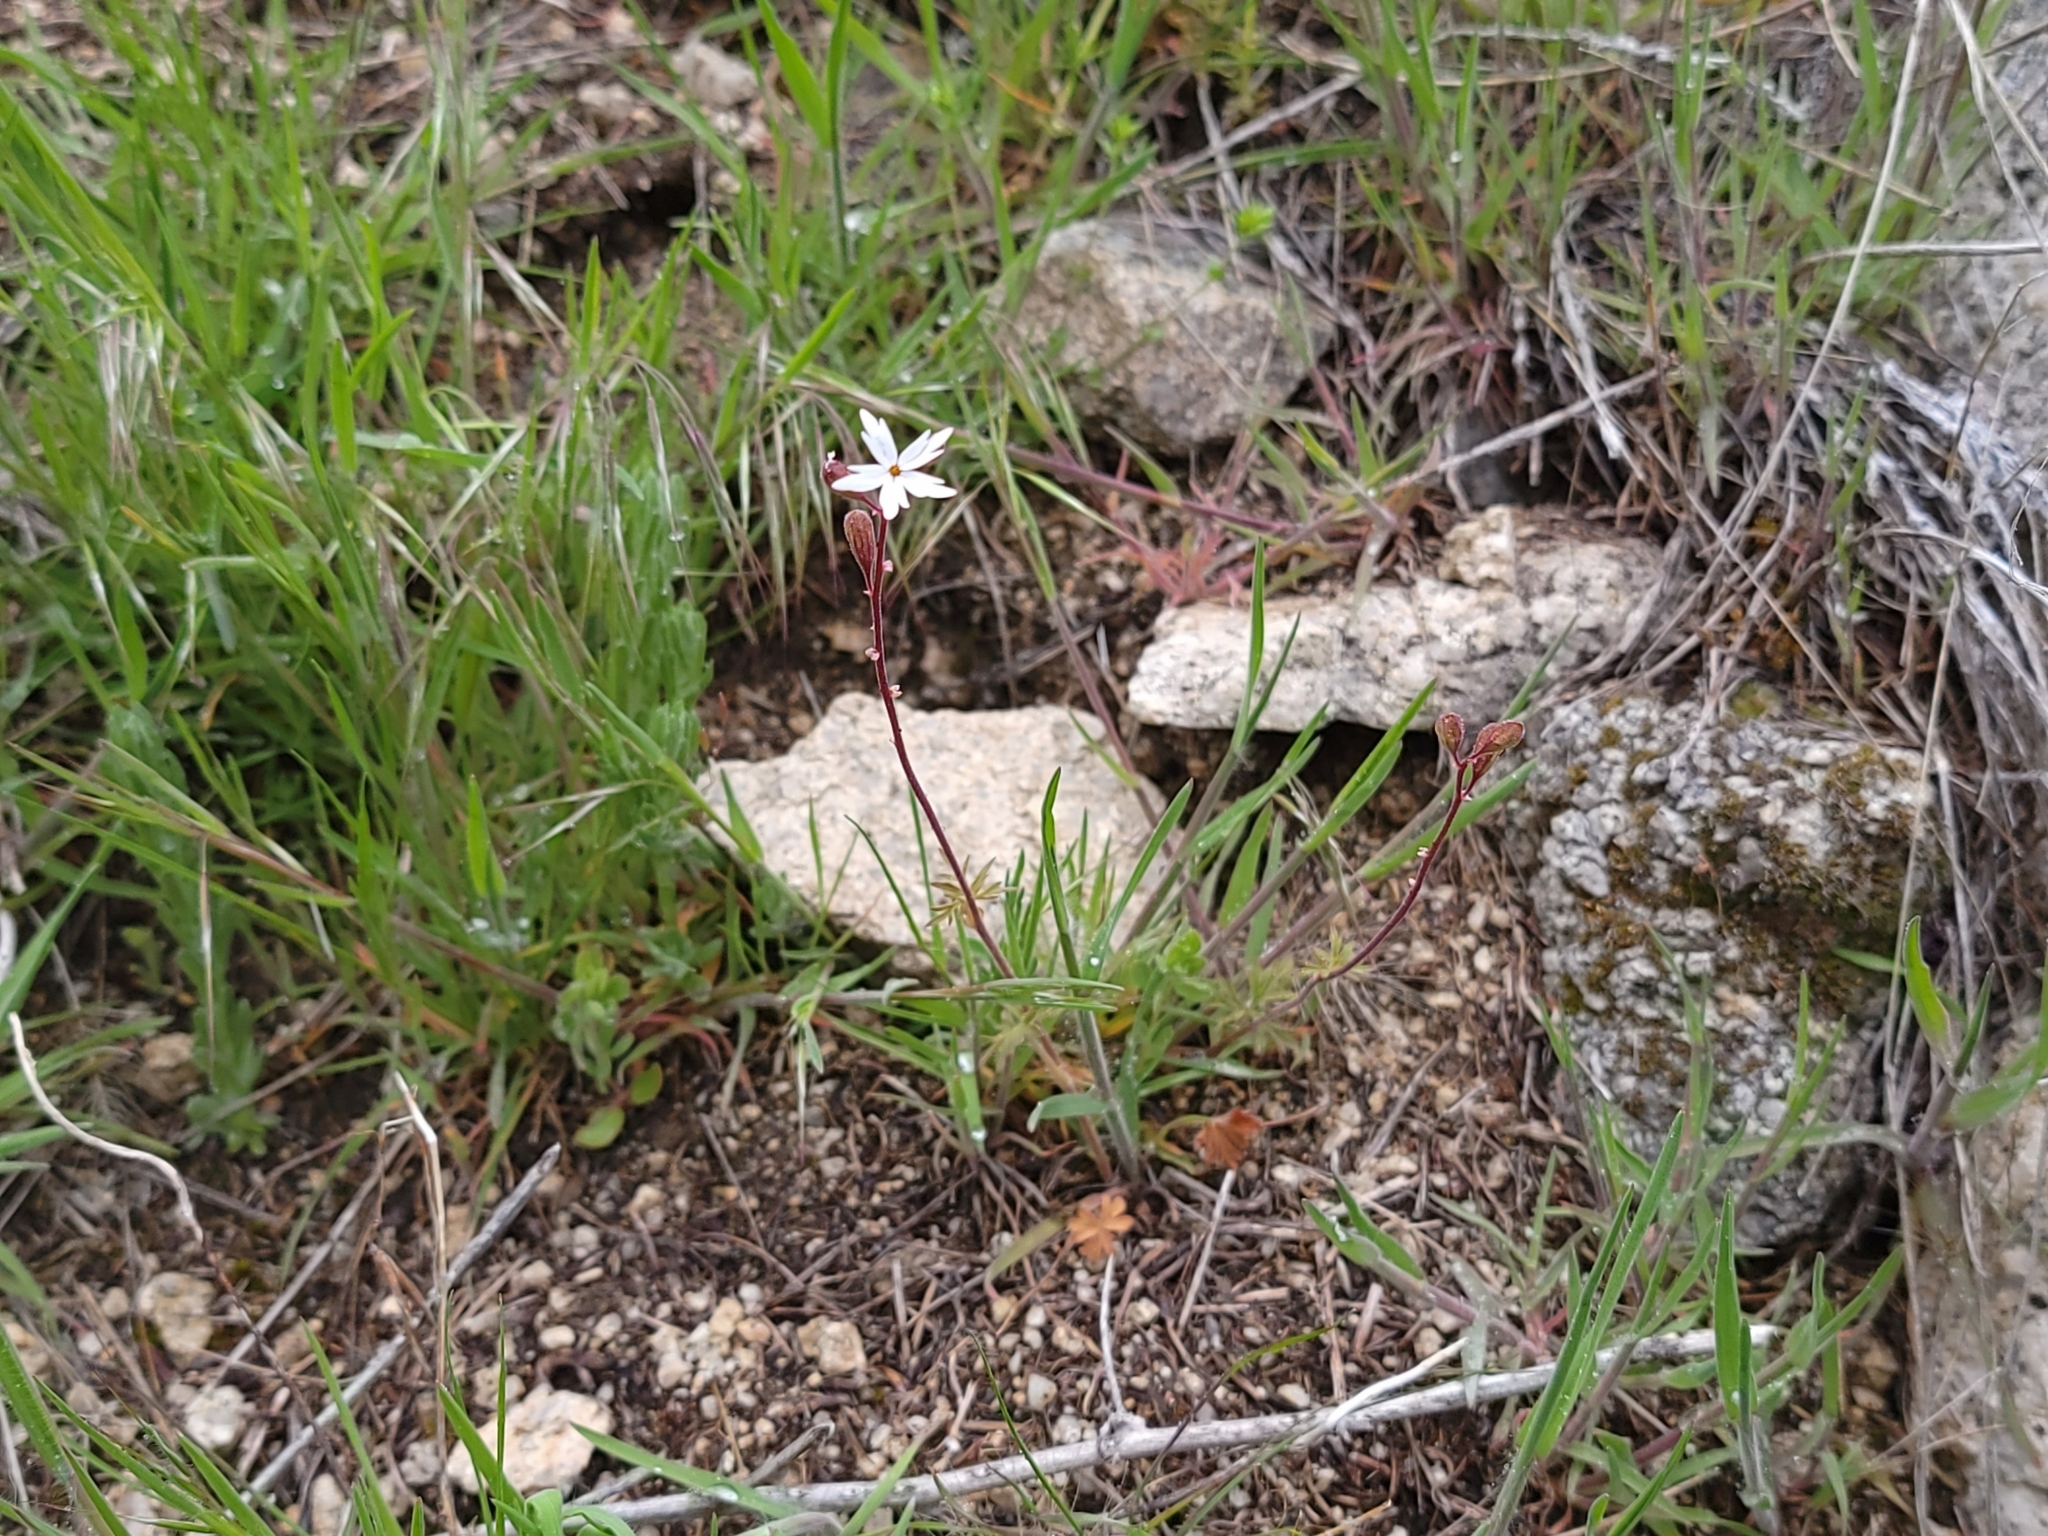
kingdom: Plantae
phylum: Tracheophyta
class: Magnoliopsida
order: Saxifragales
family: Saxifragaceae
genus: Lithophragma
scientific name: Lithophragma parviflorum
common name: Small-flowered fringe-cup
